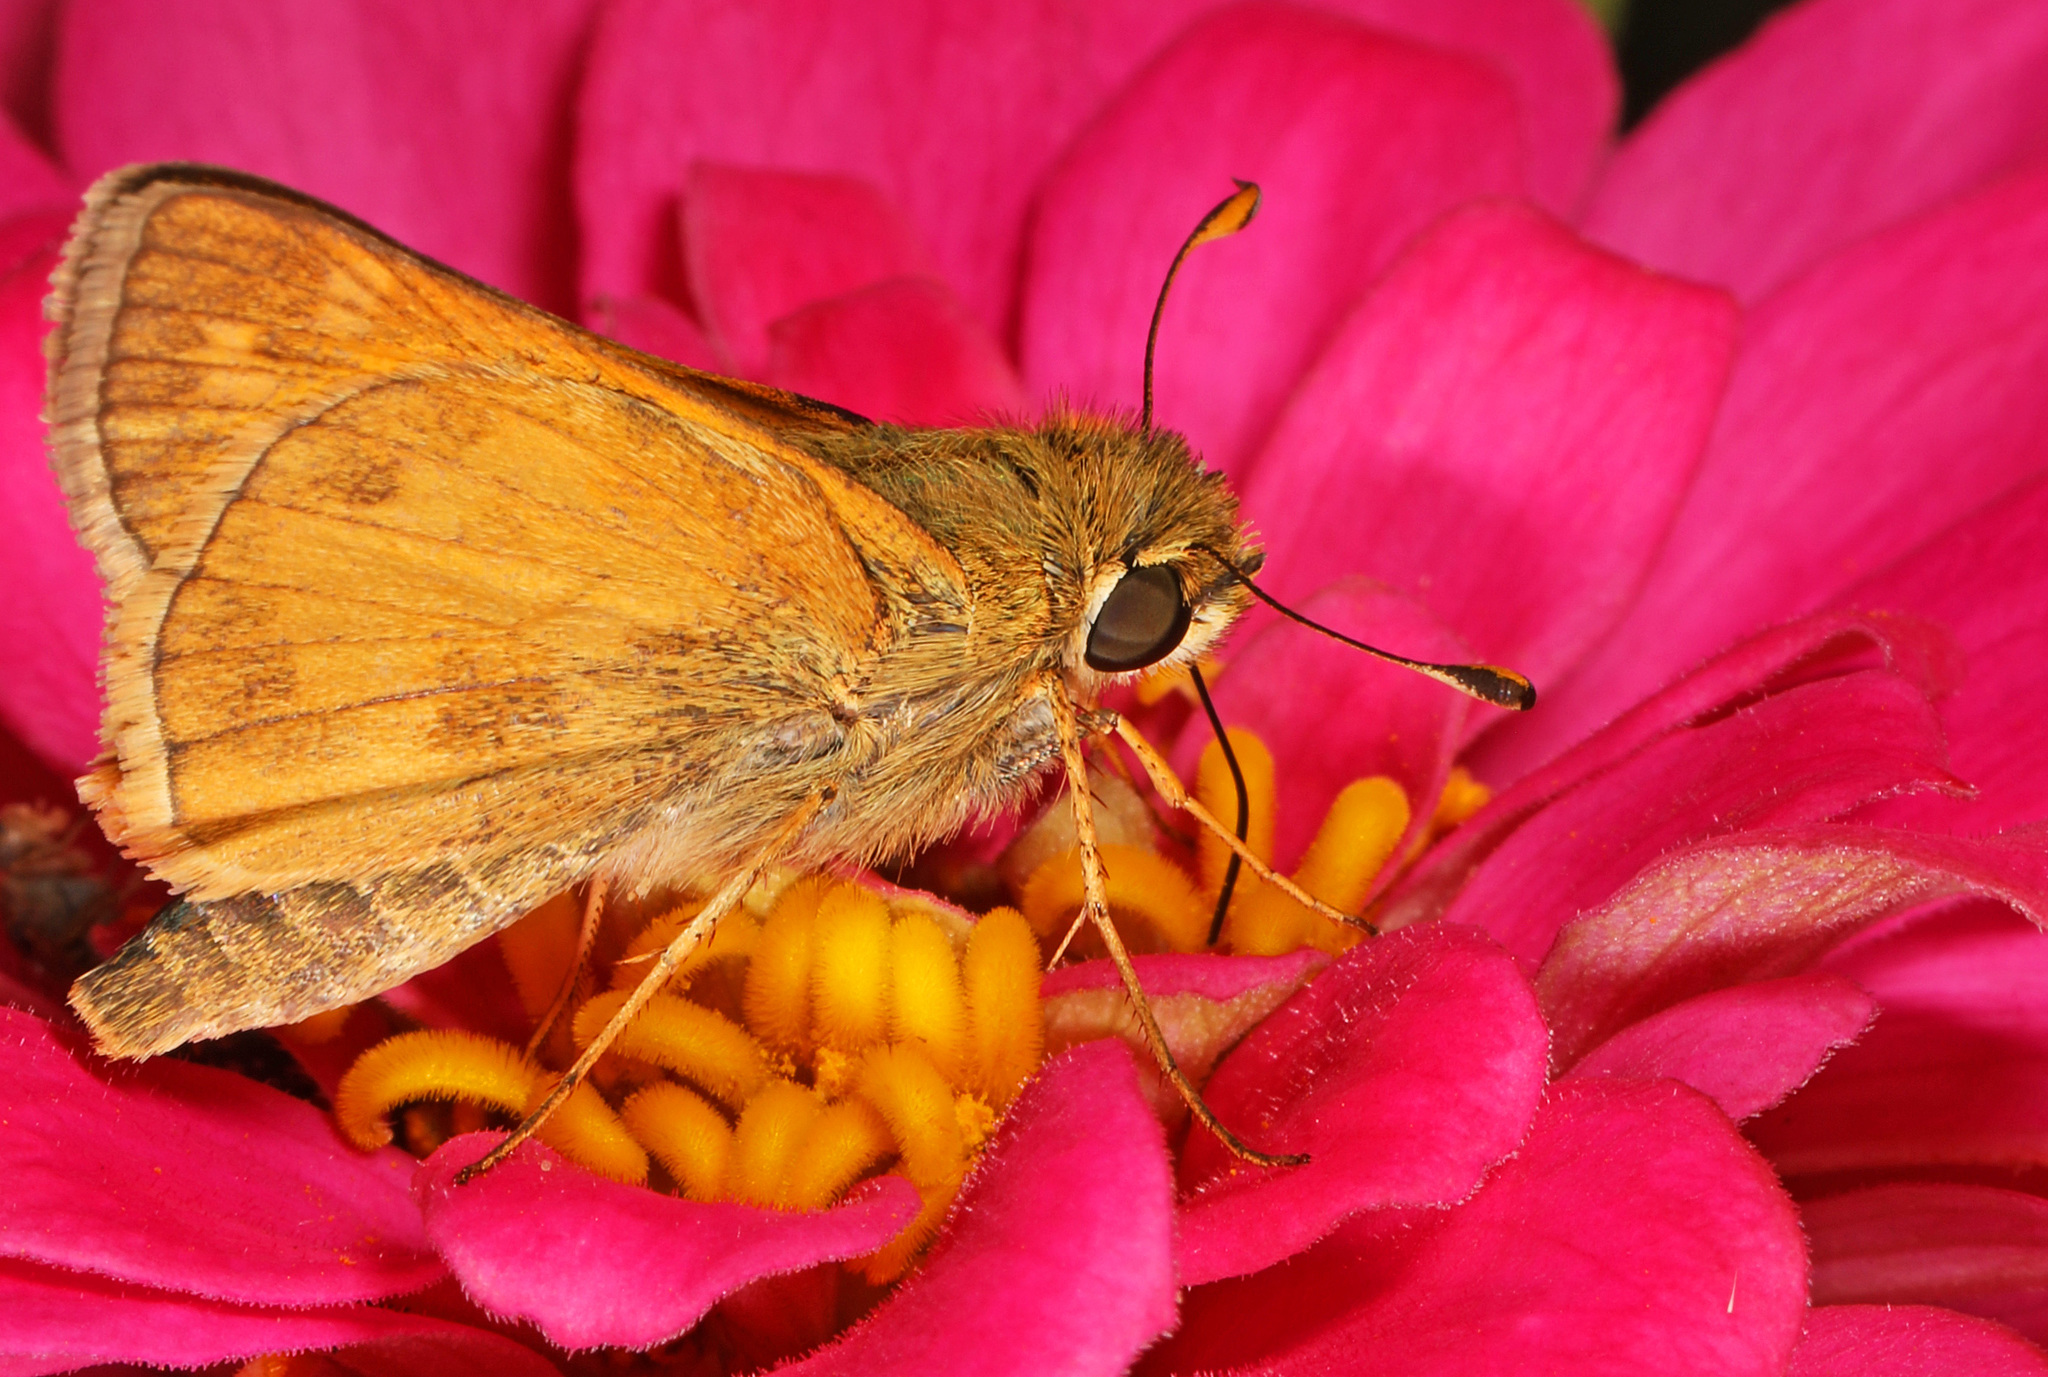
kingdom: Animalia
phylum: Arthropoda
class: Insecta
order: Lepidoptera
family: Hesperiidae
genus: Atalopedes
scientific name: Atalopedes
